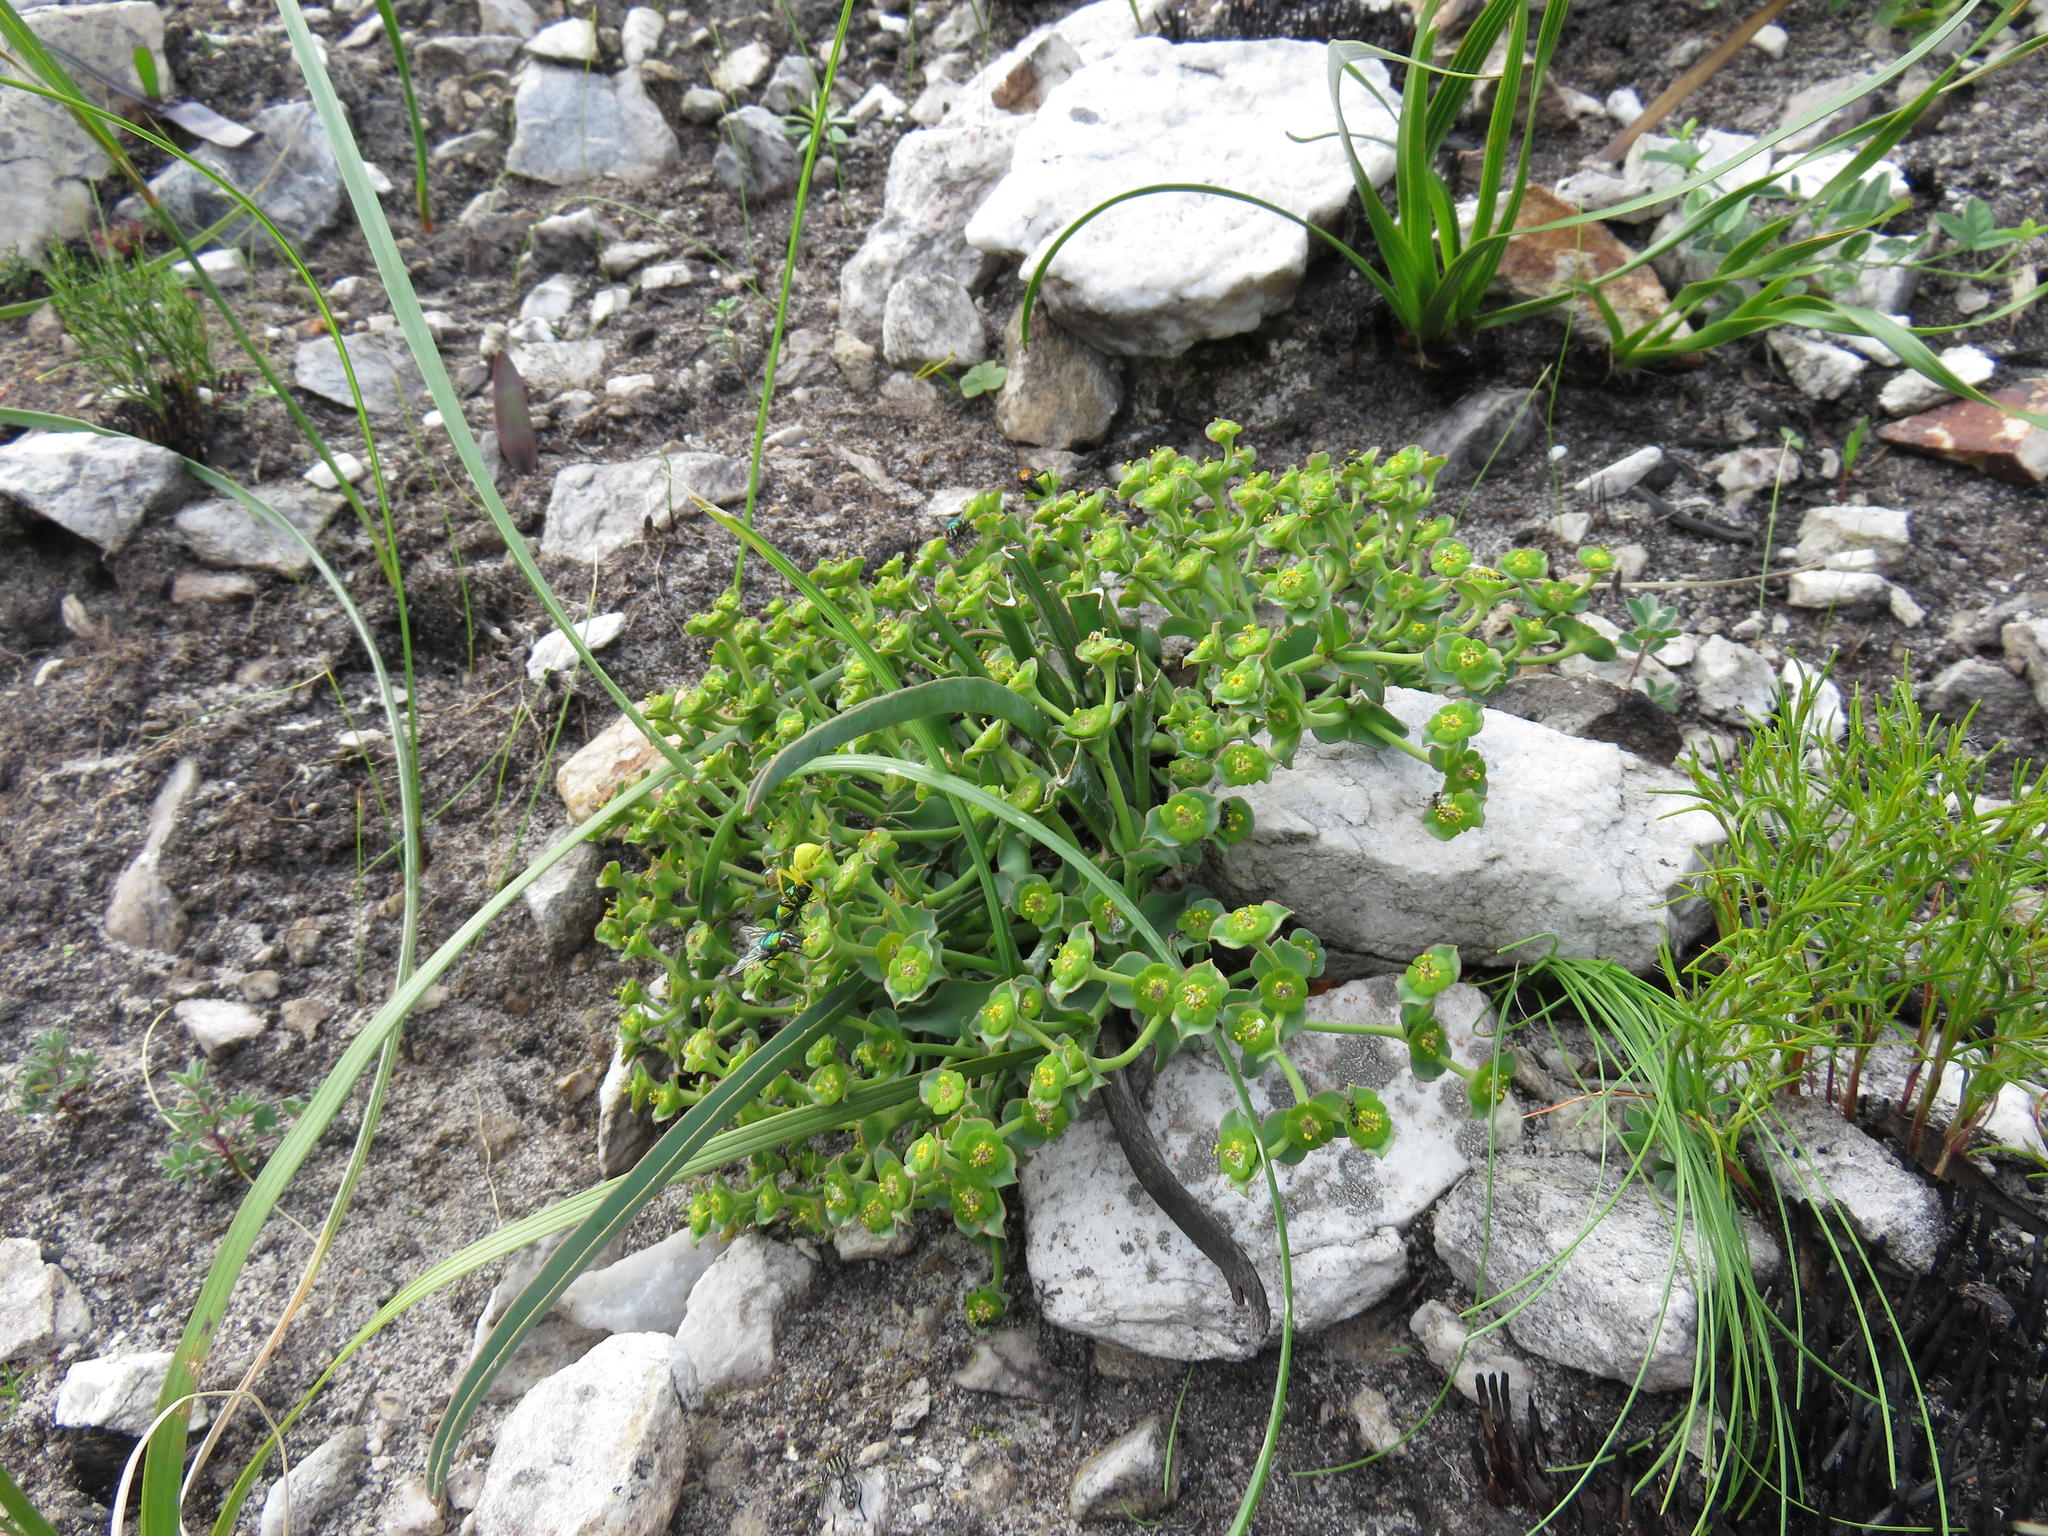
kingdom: Plantae
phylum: Tracheophyta
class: Magnoliopsida
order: Malpighiales
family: Euphorbiaceae
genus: Euphorbia
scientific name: Euphorbia silenifolia
